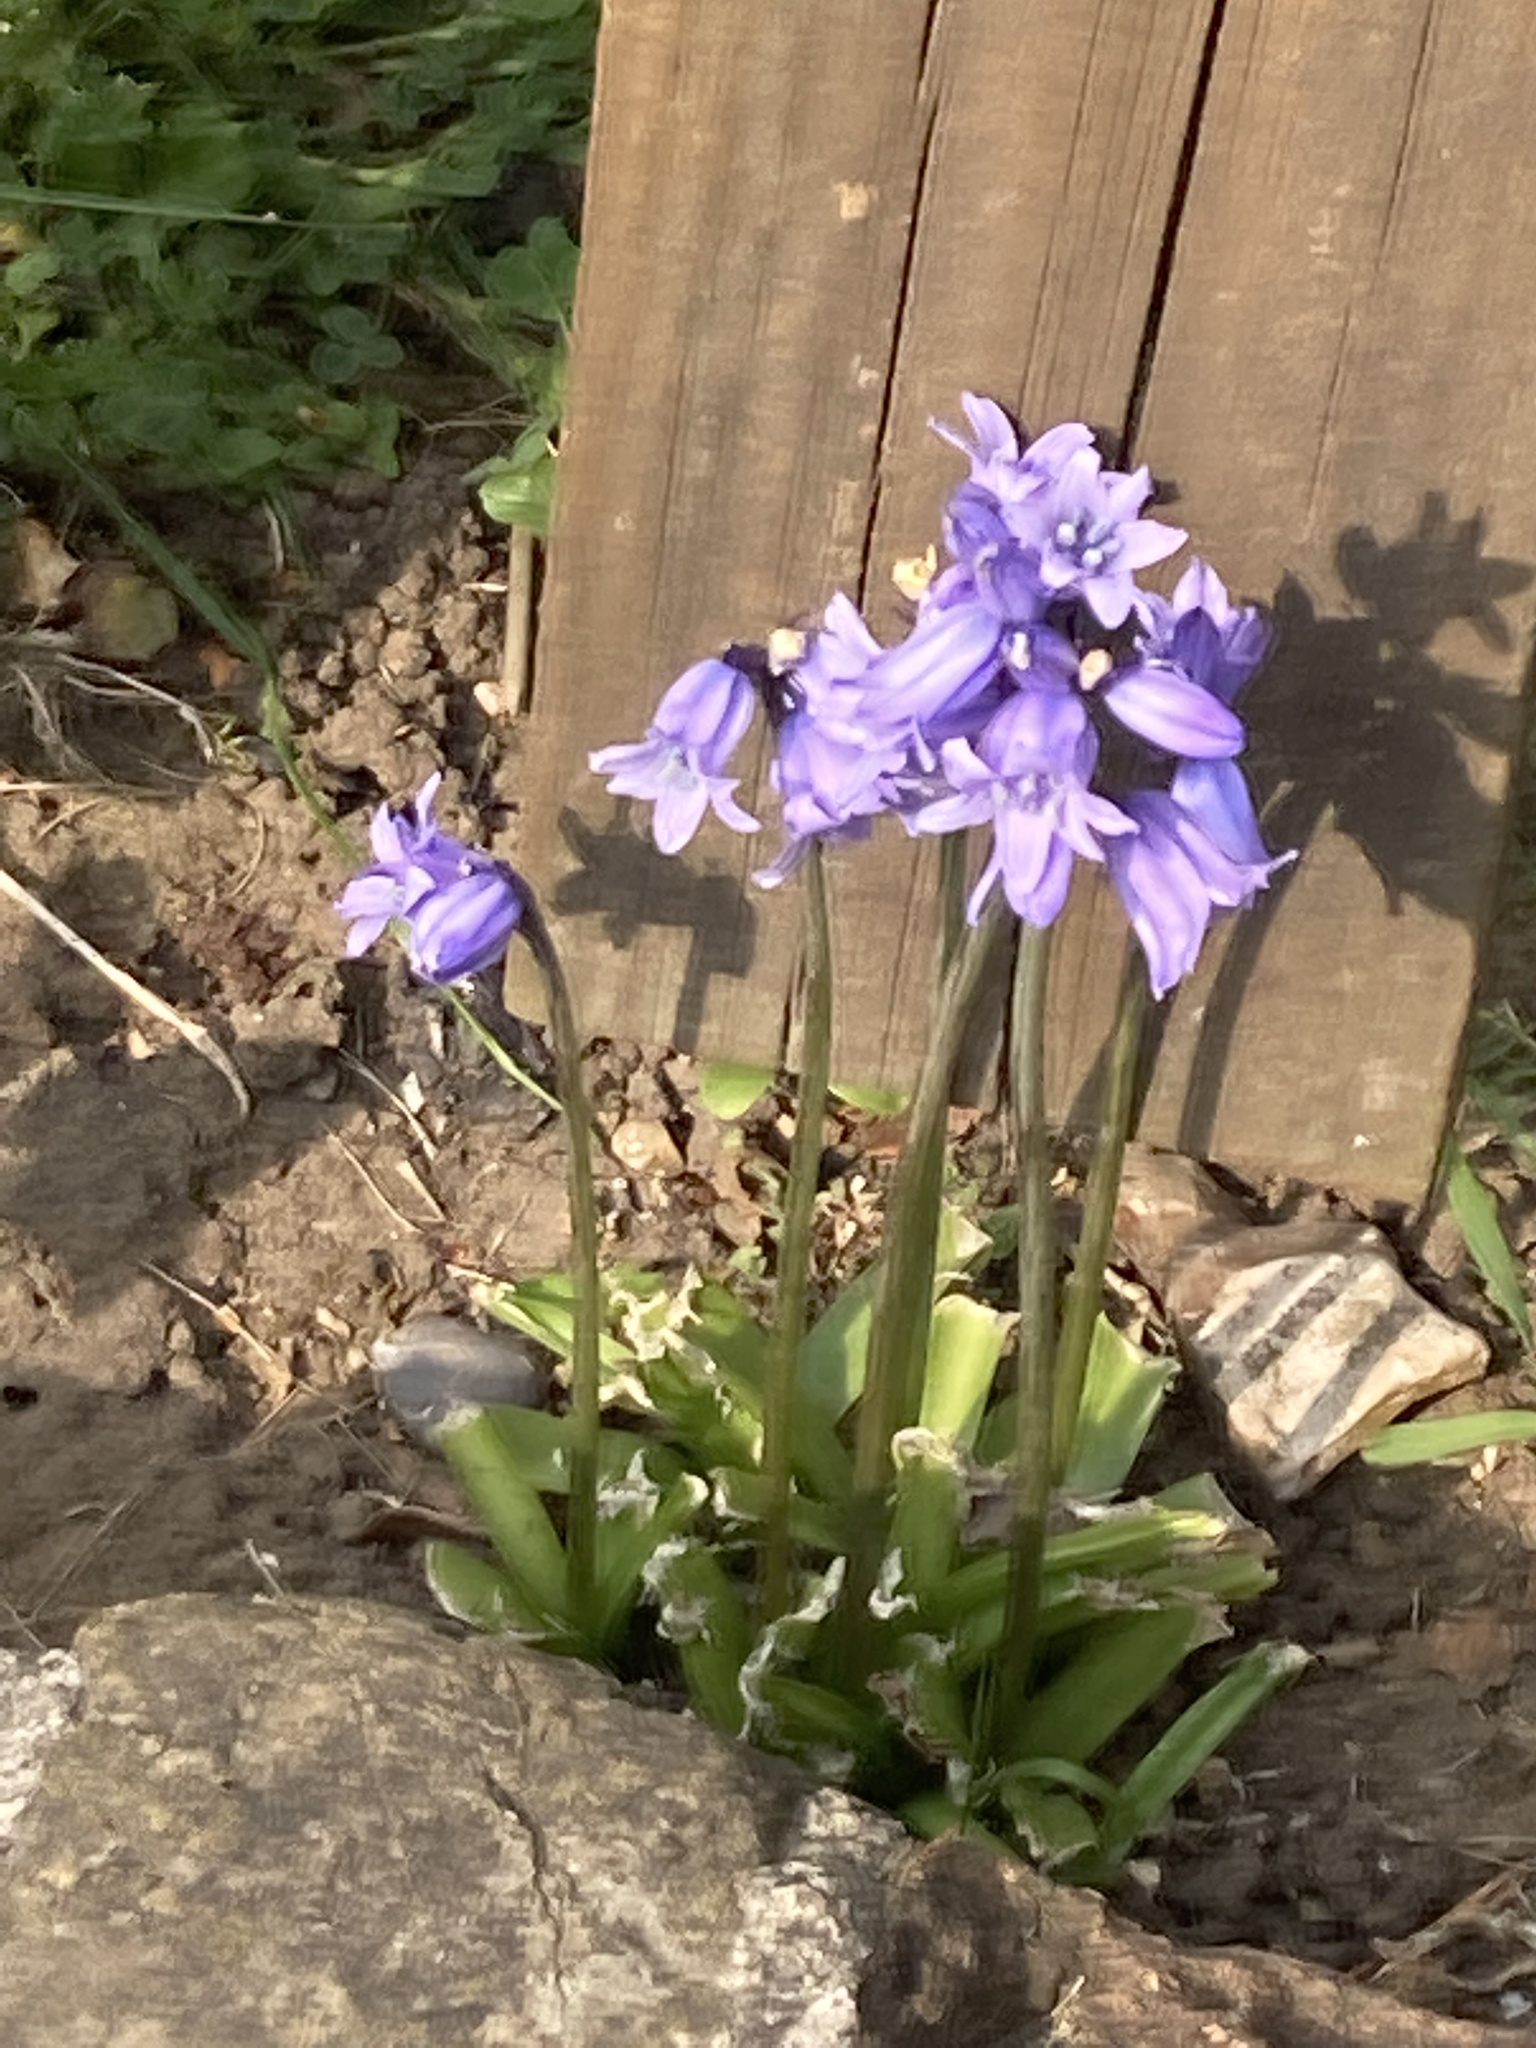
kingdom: Plantae
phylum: Tracheophyta
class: Liliopsida
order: Asparagales
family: Asparagaceae
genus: Hyacinthoides
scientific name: Hyacinthoides hispanica
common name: Spanish bluebell
